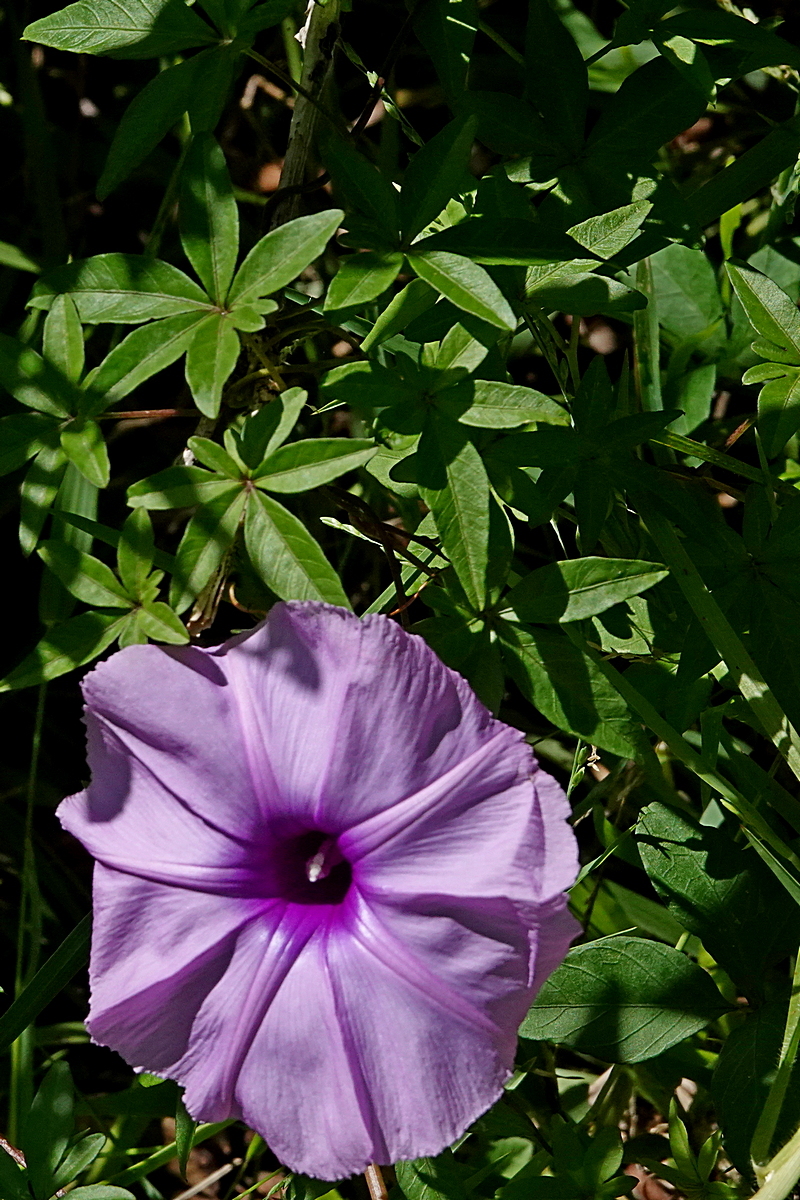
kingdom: Plantae
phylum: Tracheophyta
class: Magnoliopsida
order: Solanales
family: Convolvulaceae
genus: Ipomoea
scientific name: Ipomoea cairica
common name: Mile a minute vine
